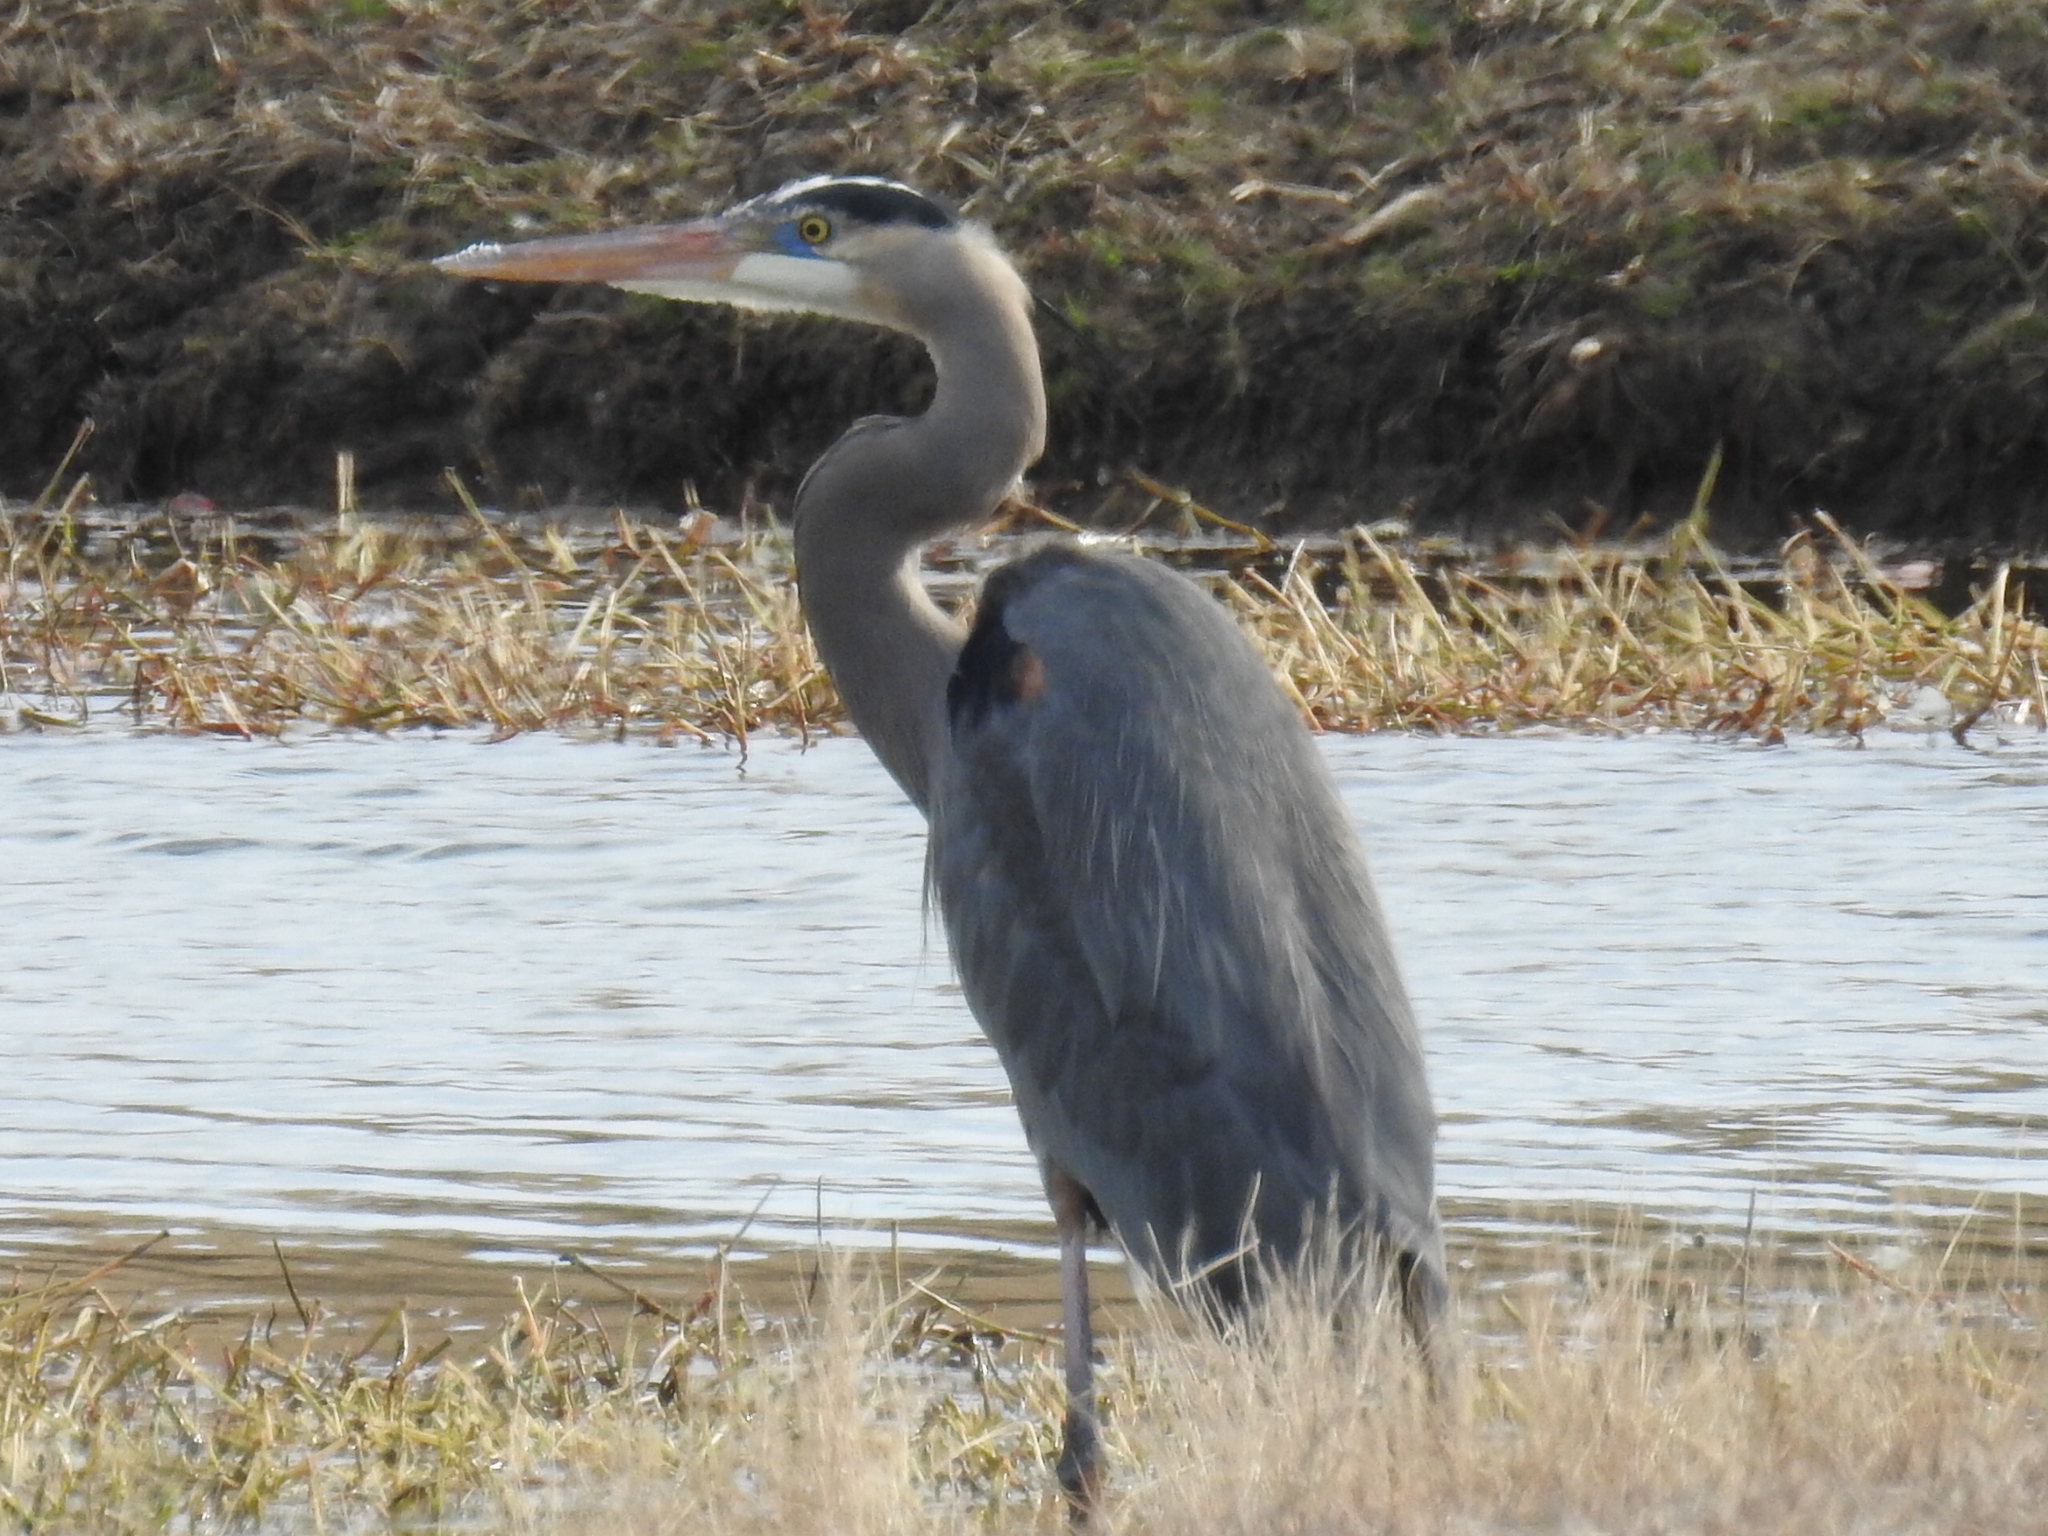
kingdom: Animalia
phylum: Chordata
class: Aves
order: Pelecaniformes
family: Ardeidae
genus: Ardea
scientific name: Ardea herodias
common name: Great blue heron
